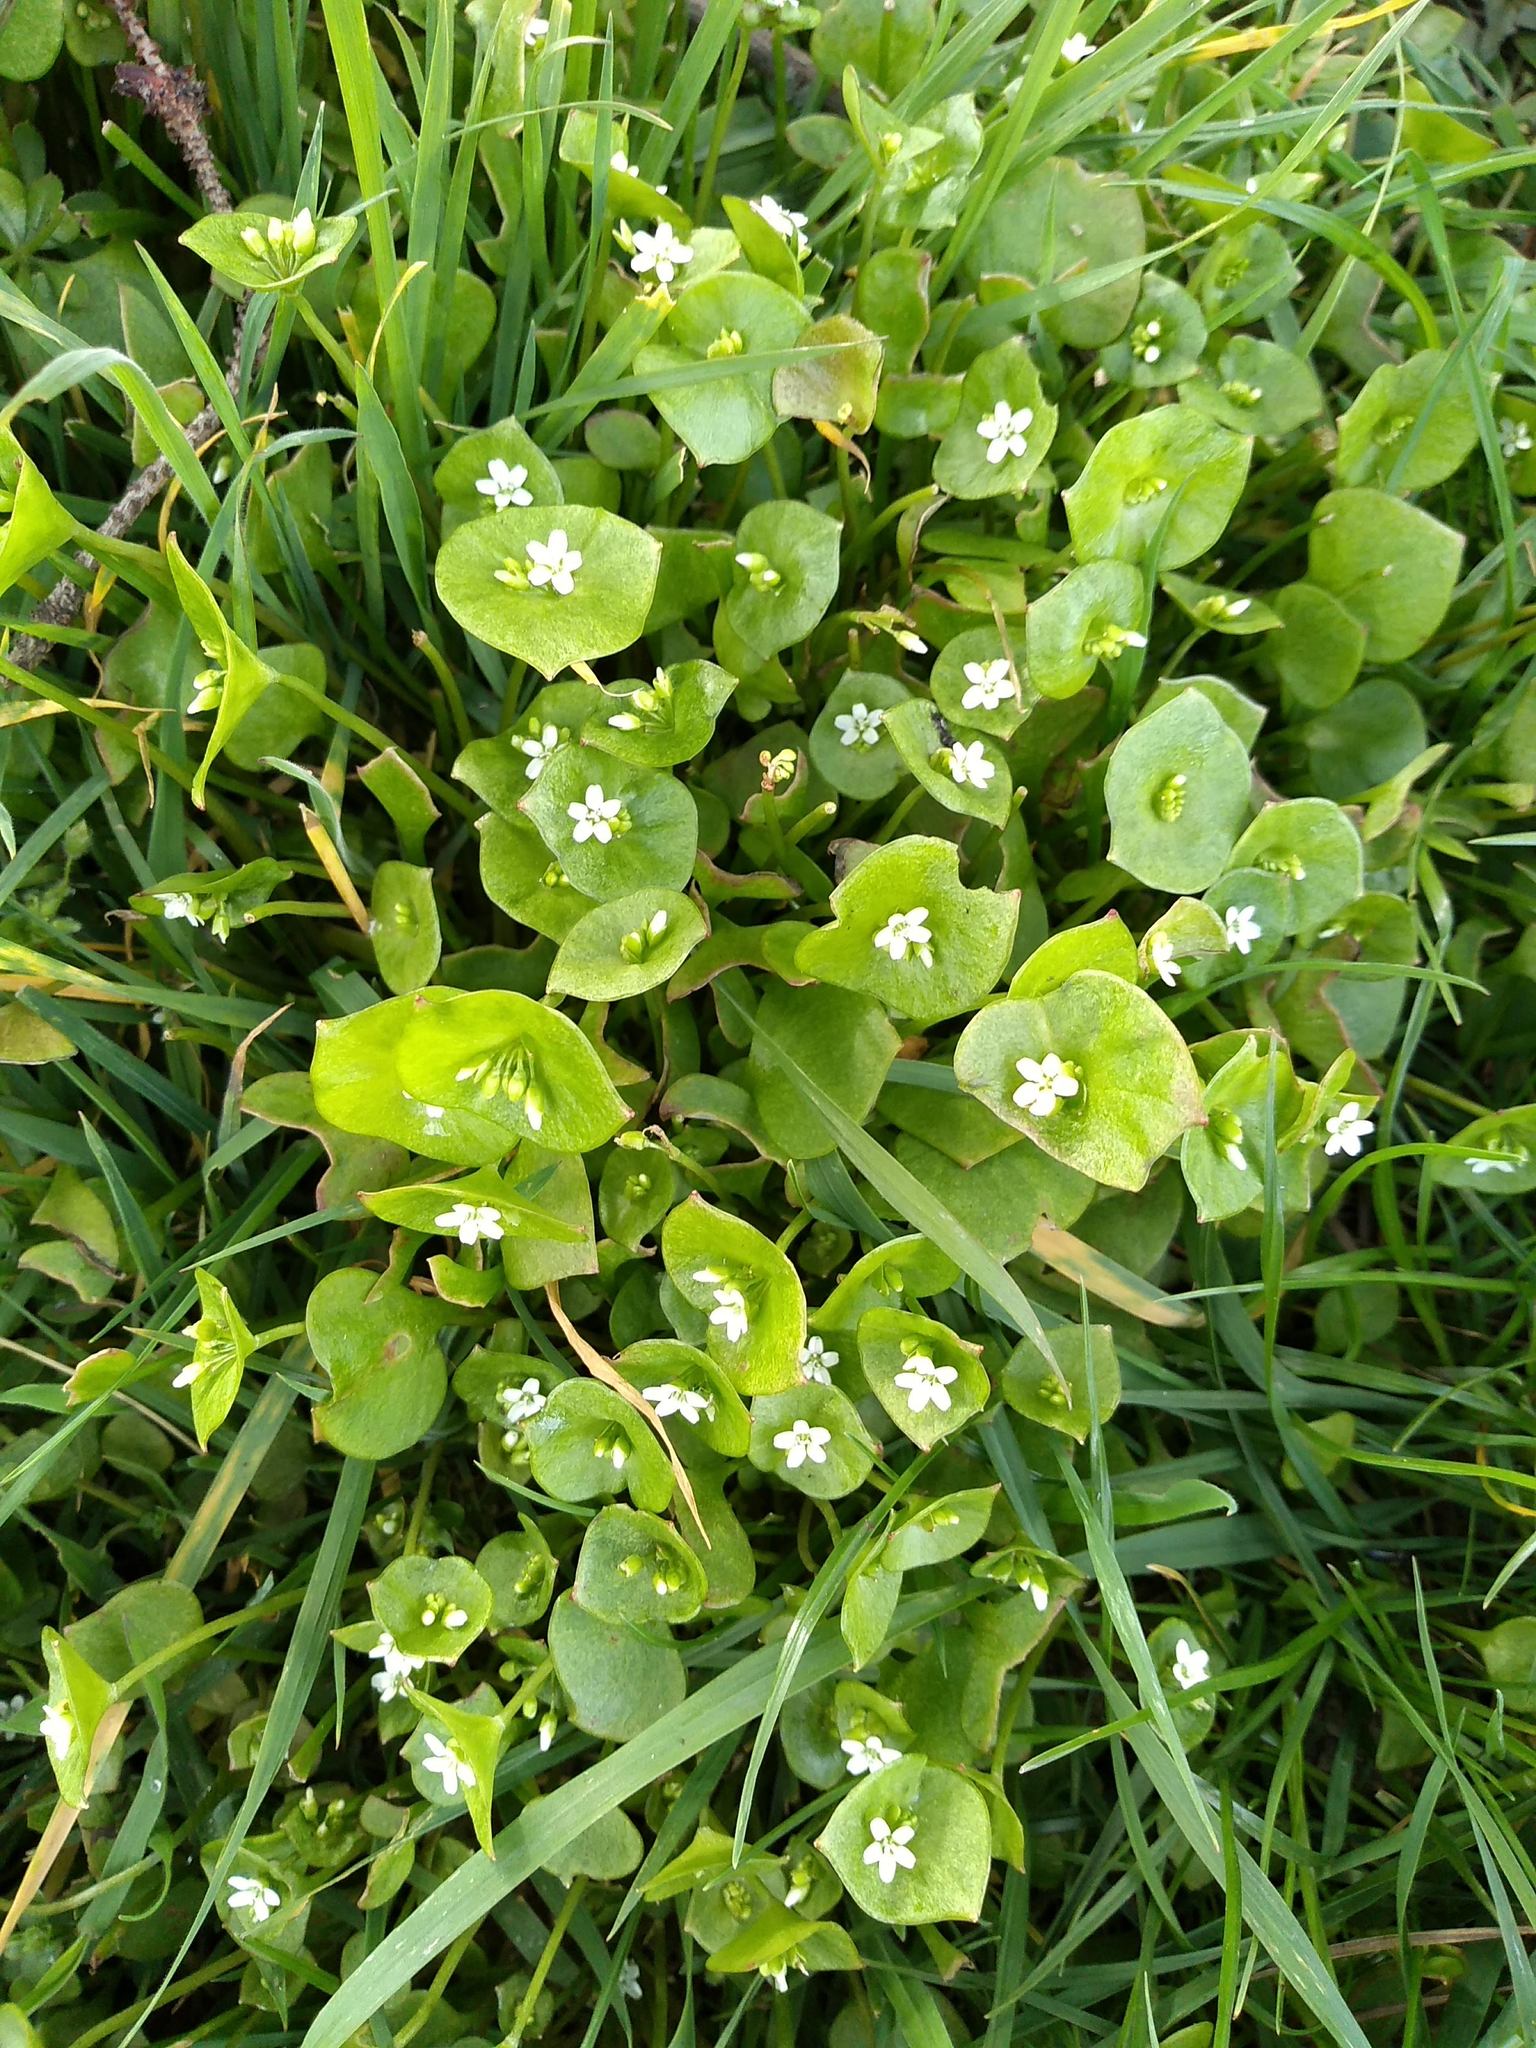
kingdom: Plantae
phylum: Tracheophyta
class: Magnoliopsida
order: Caryophyllales
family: Montiaceae
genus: Claytonia
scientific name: Claytonia perfoliata
